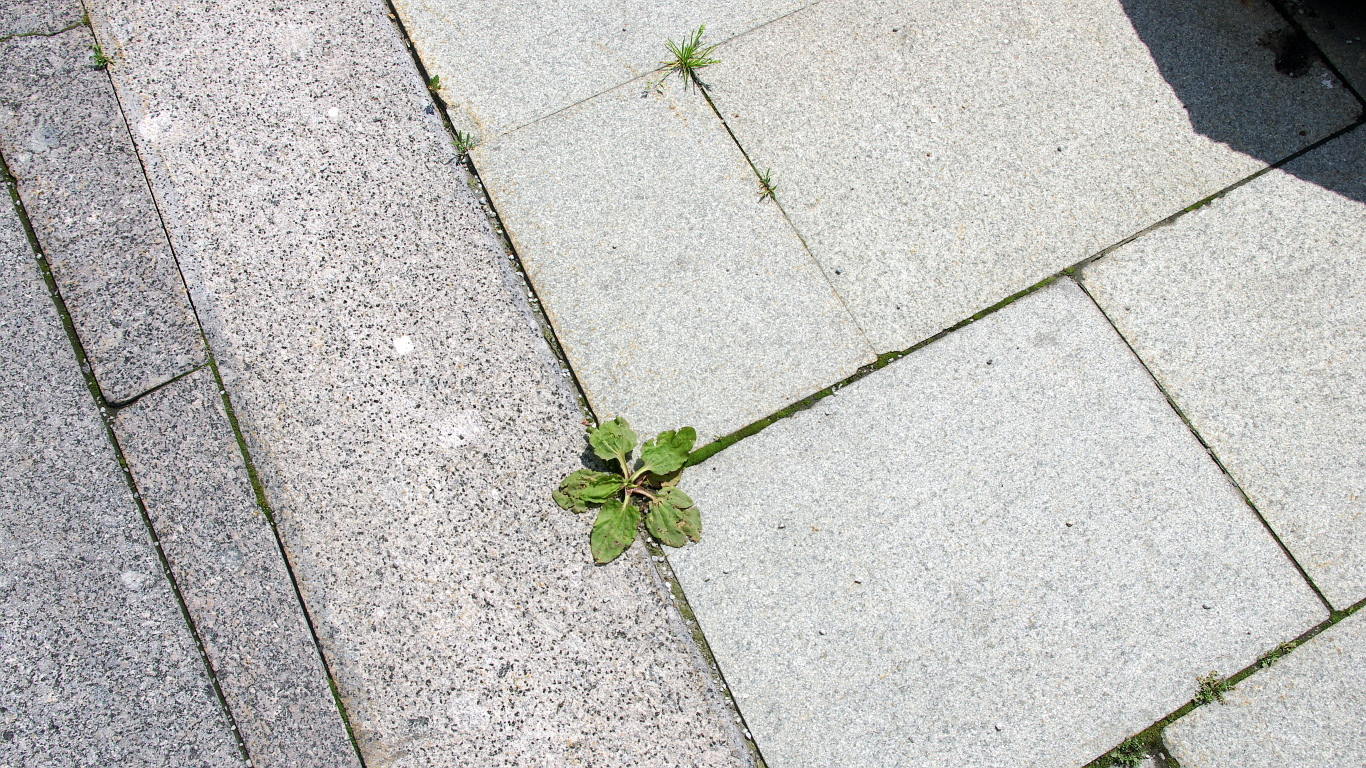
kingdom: Plantae
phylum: Tracheophyta
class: Liliopsida
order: Poales
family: Poaceae
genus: Poa
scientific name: Poa annua
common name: Annual bluegrass
